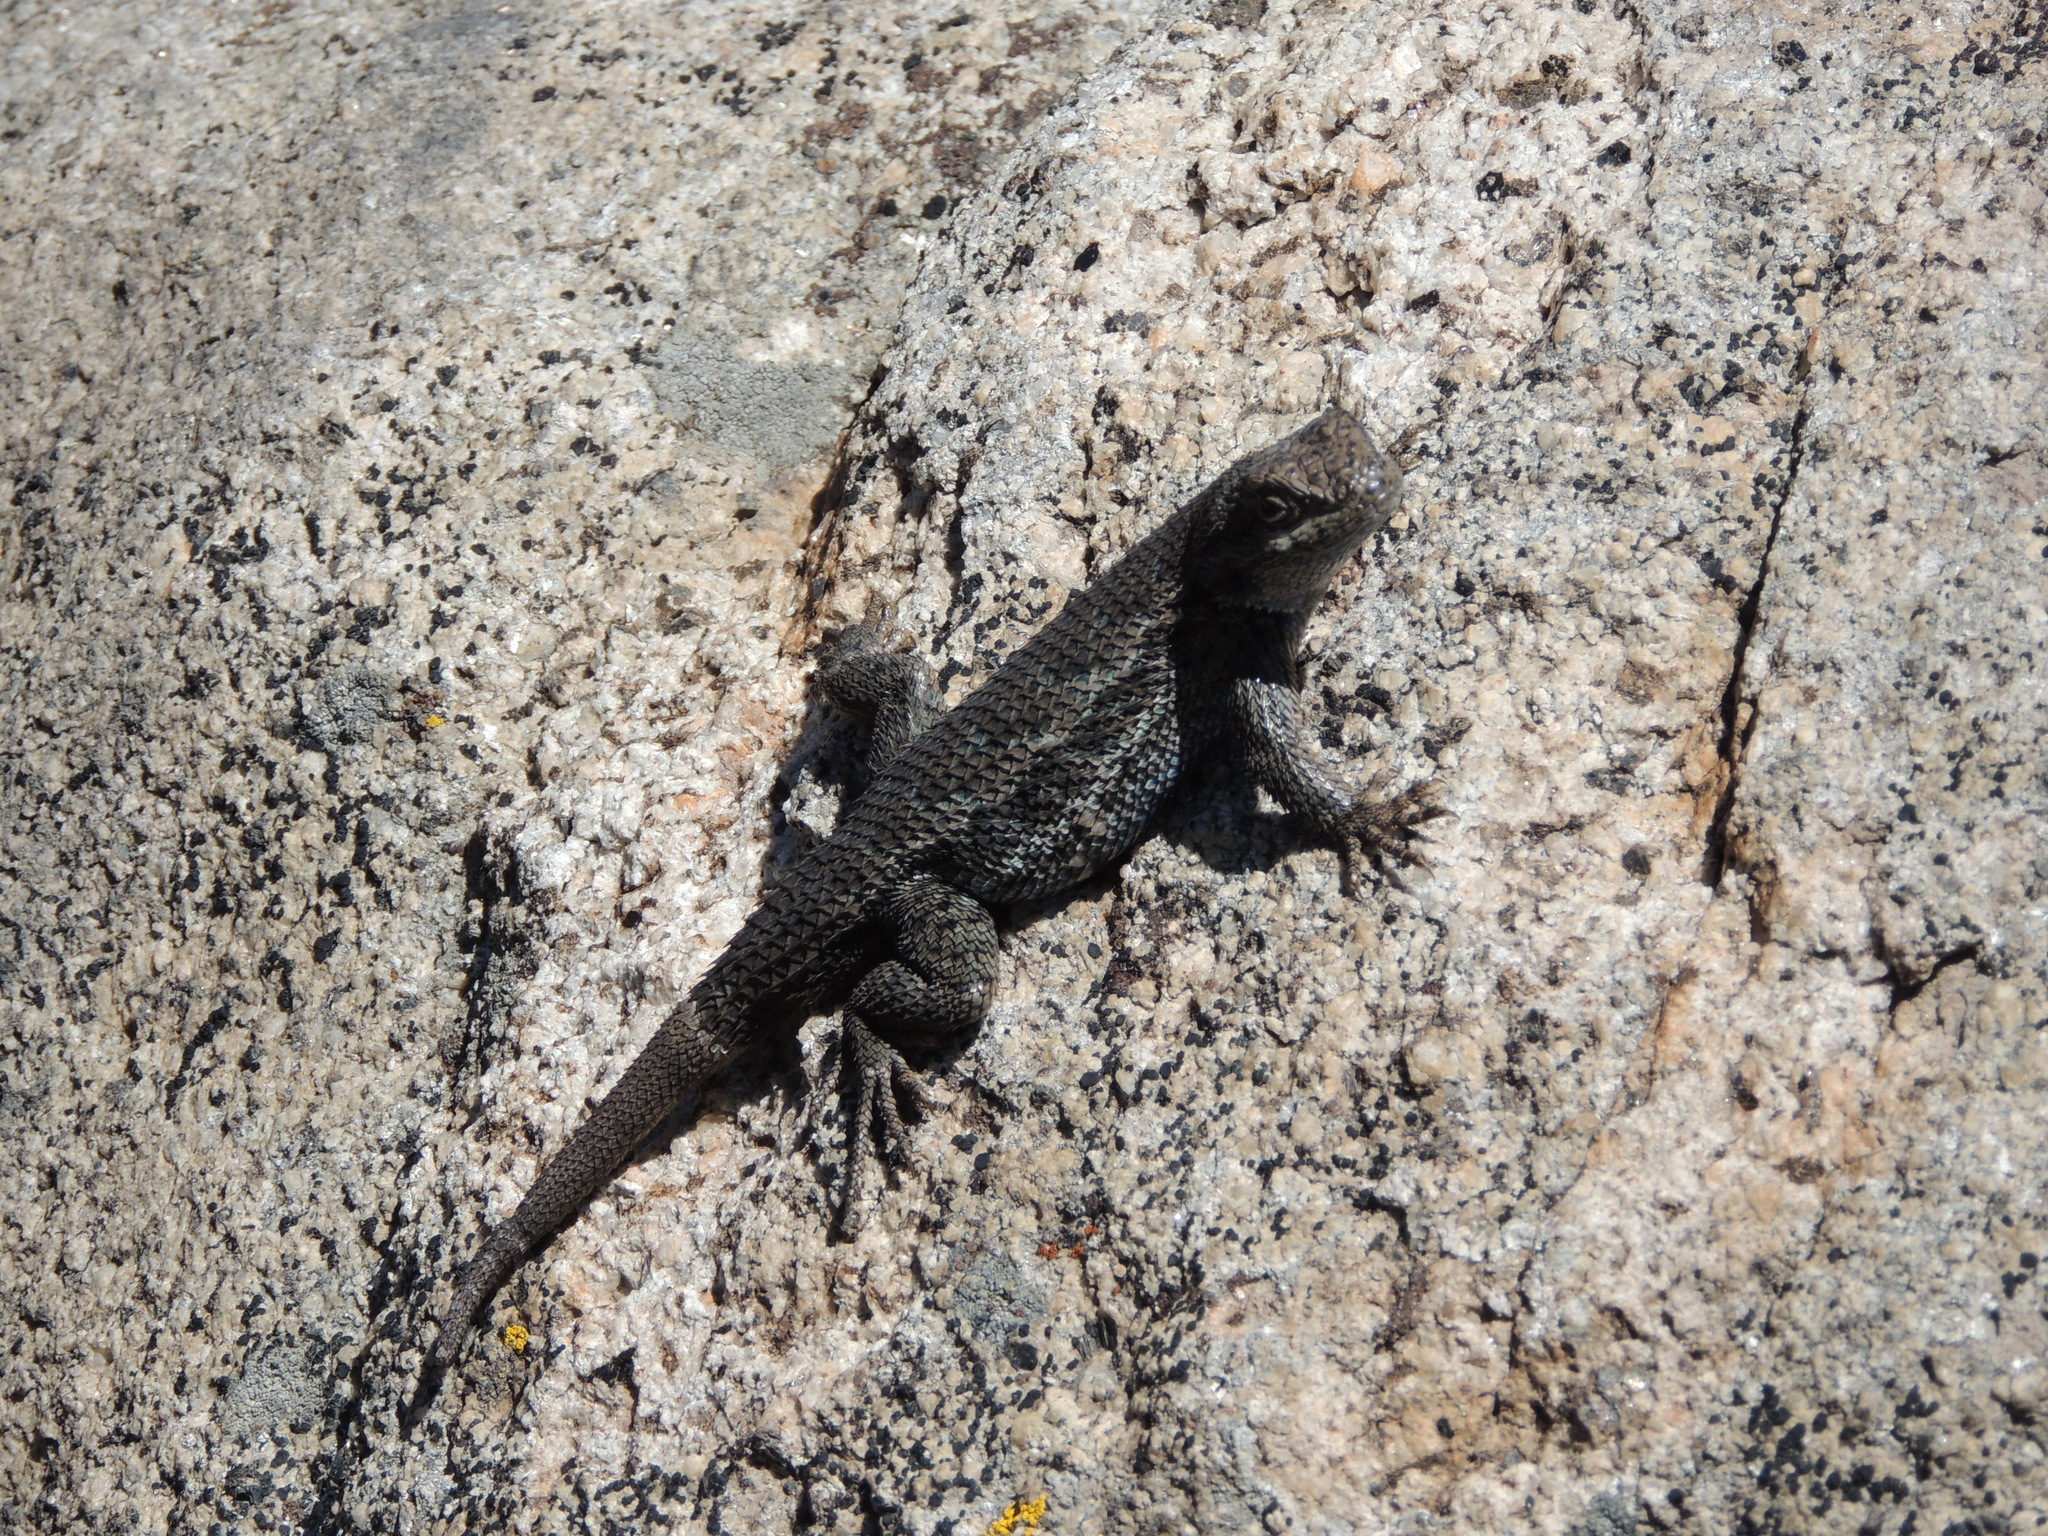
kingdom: Animalia
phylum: Chordata
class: Squamata
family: Phrynosomatidae
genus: Sceloporus
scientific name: Sceloporus occidentalis
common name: Western fence lizard
